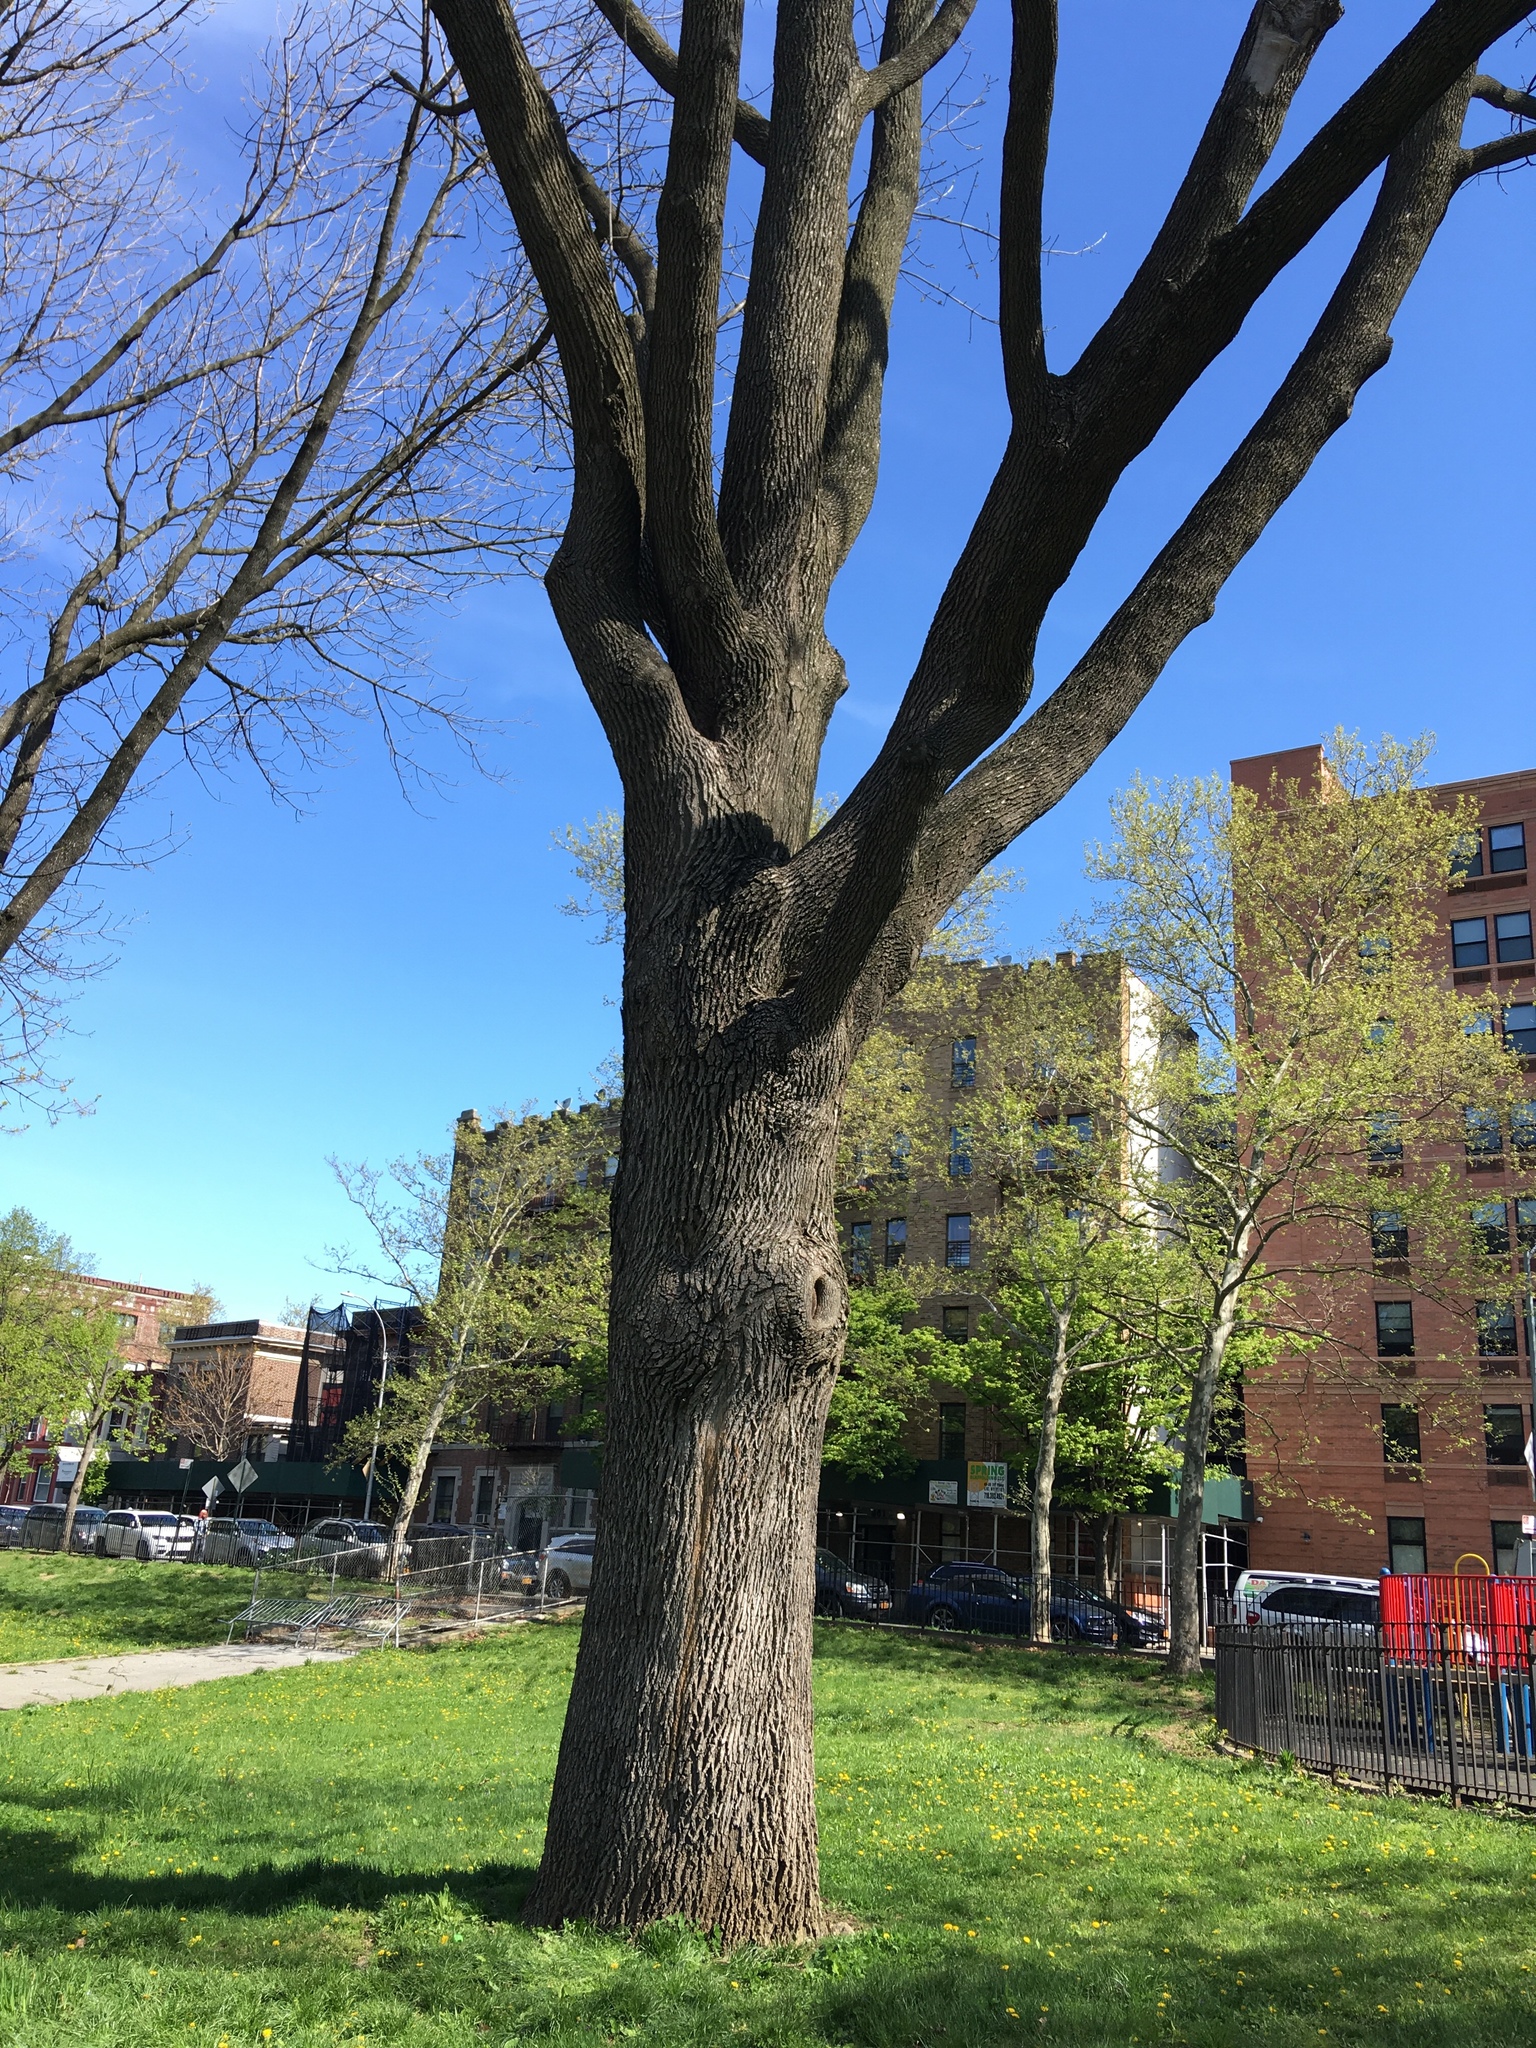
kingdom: Plantae
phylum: Tracheophyta
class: Magnoliopsida
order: Lamiales
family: Oleaceae
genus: Fraxinus
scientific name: Fraxinus americana
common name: White ash
